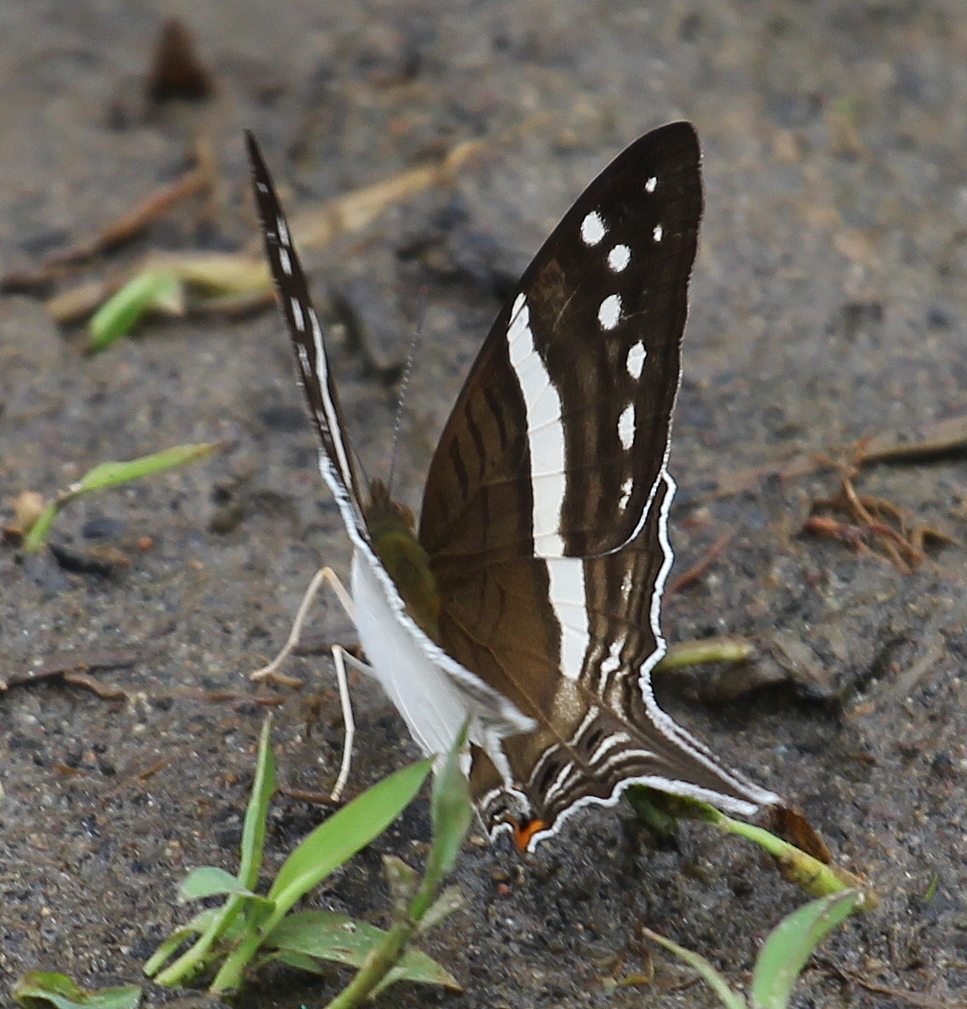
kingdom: Animalia
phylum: Arthropoda
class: Insecta
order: Lepidoptera
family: Nymphalidae
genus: Marpesia
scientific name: Marpesia crethon
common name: Crethon daggerwing
